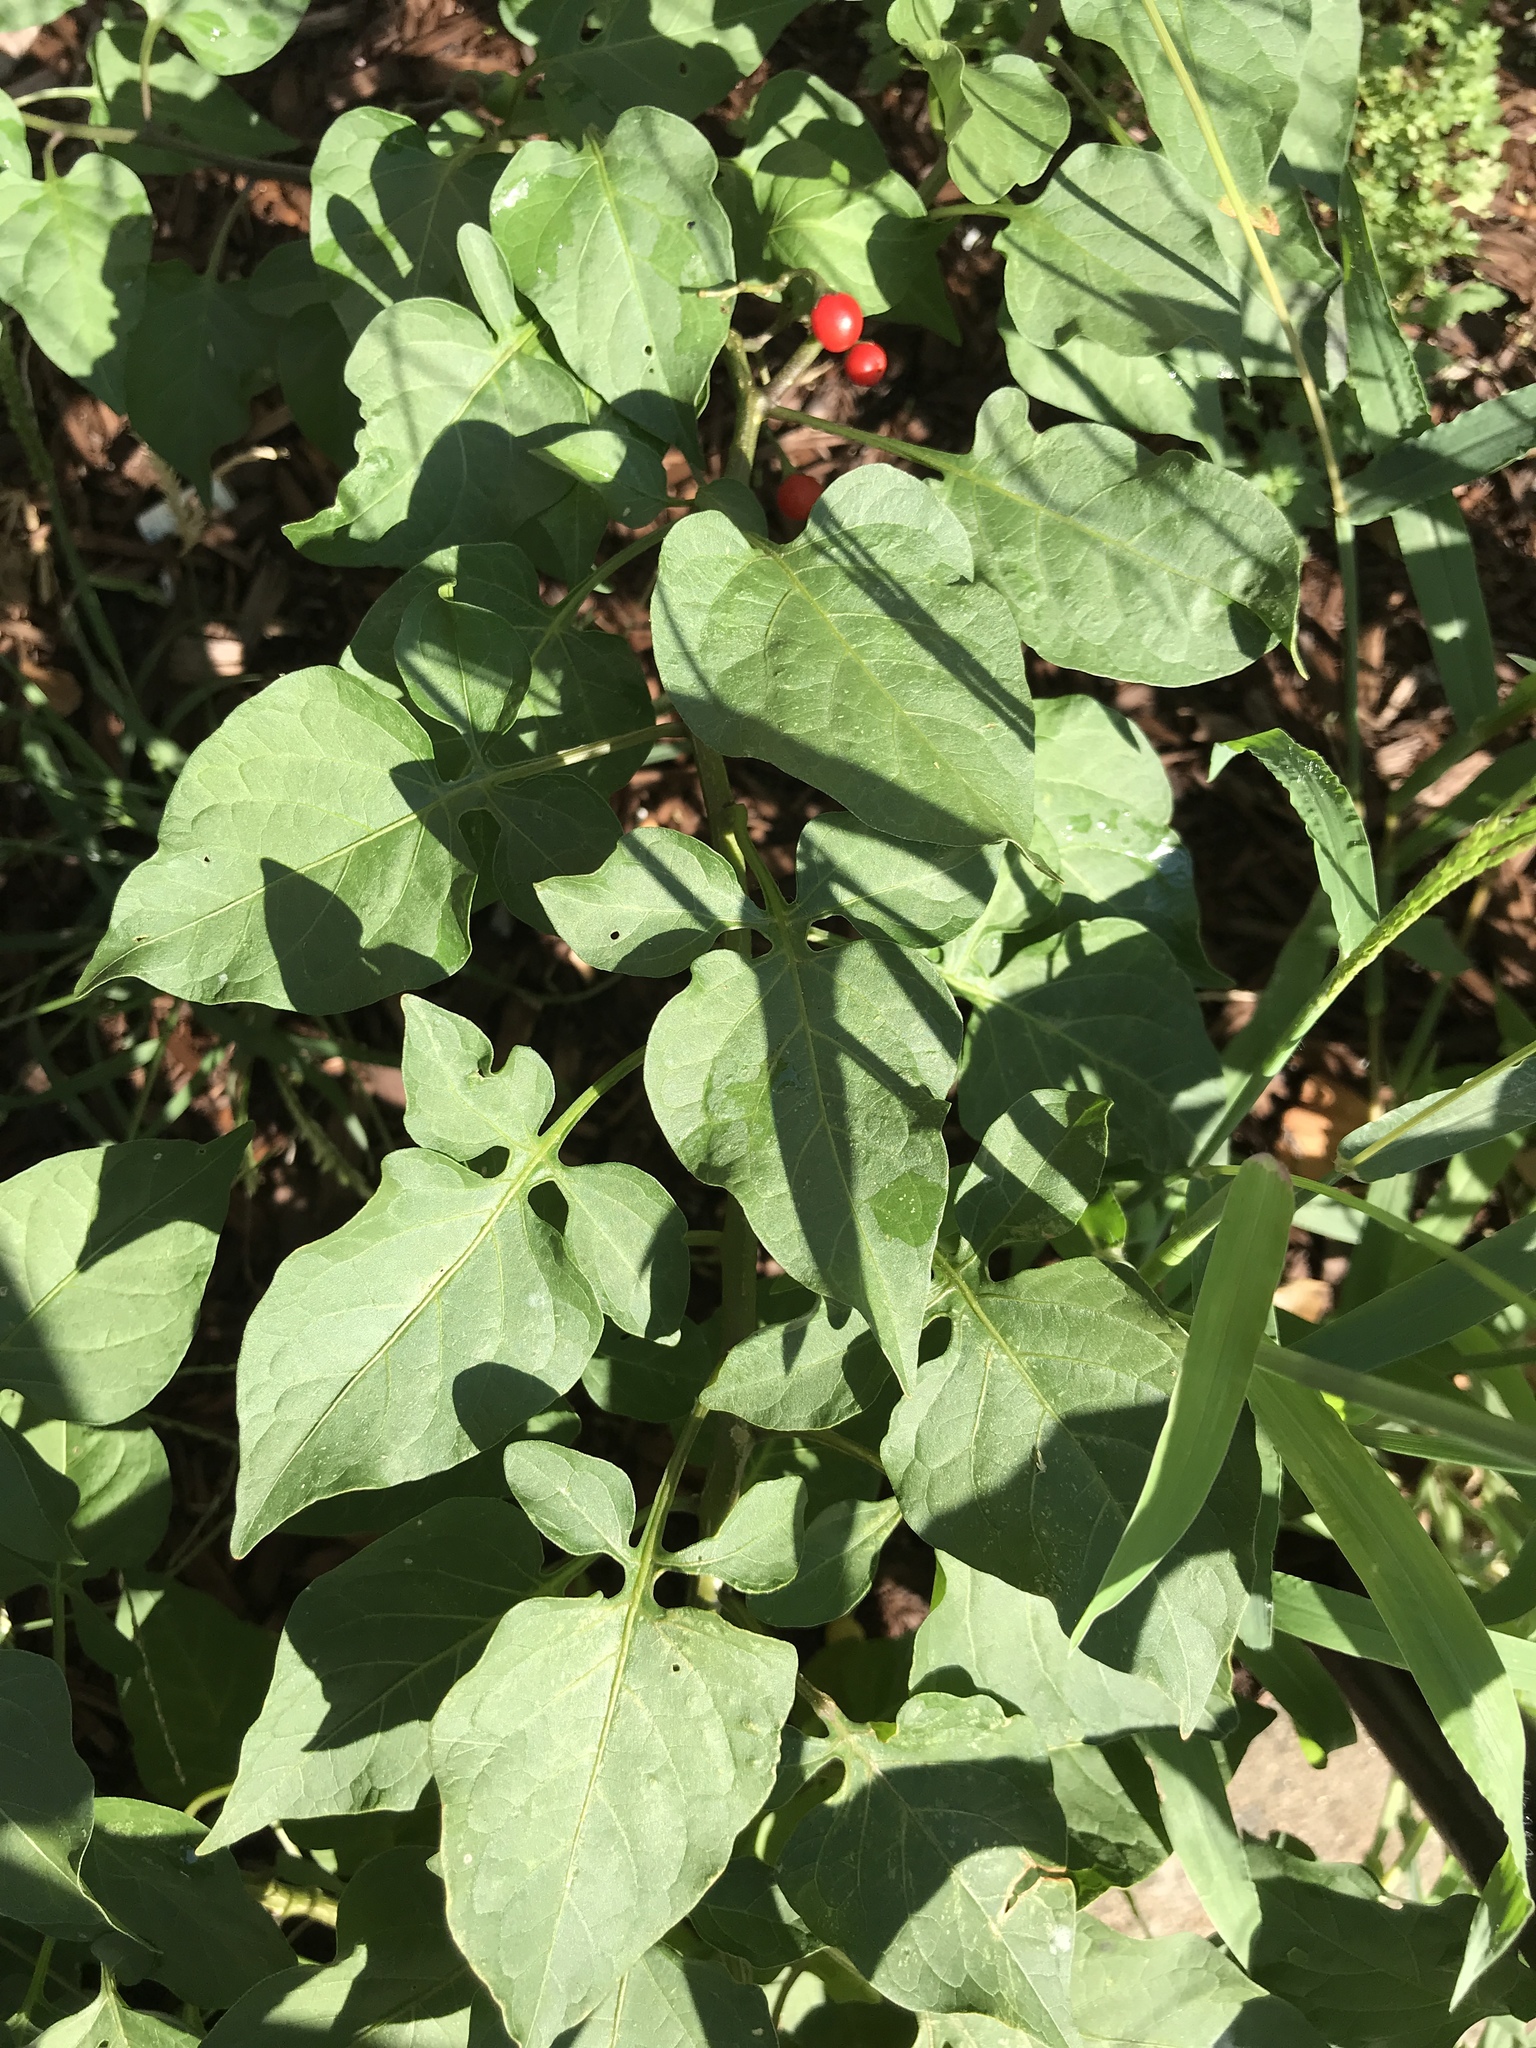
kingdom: Plantae
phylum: Tracheophyta
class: Magnoliopsida
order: Solanales
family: Solanaceae
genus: Solanum
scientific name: Solanum dulcamara
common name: Climbing nightshade
